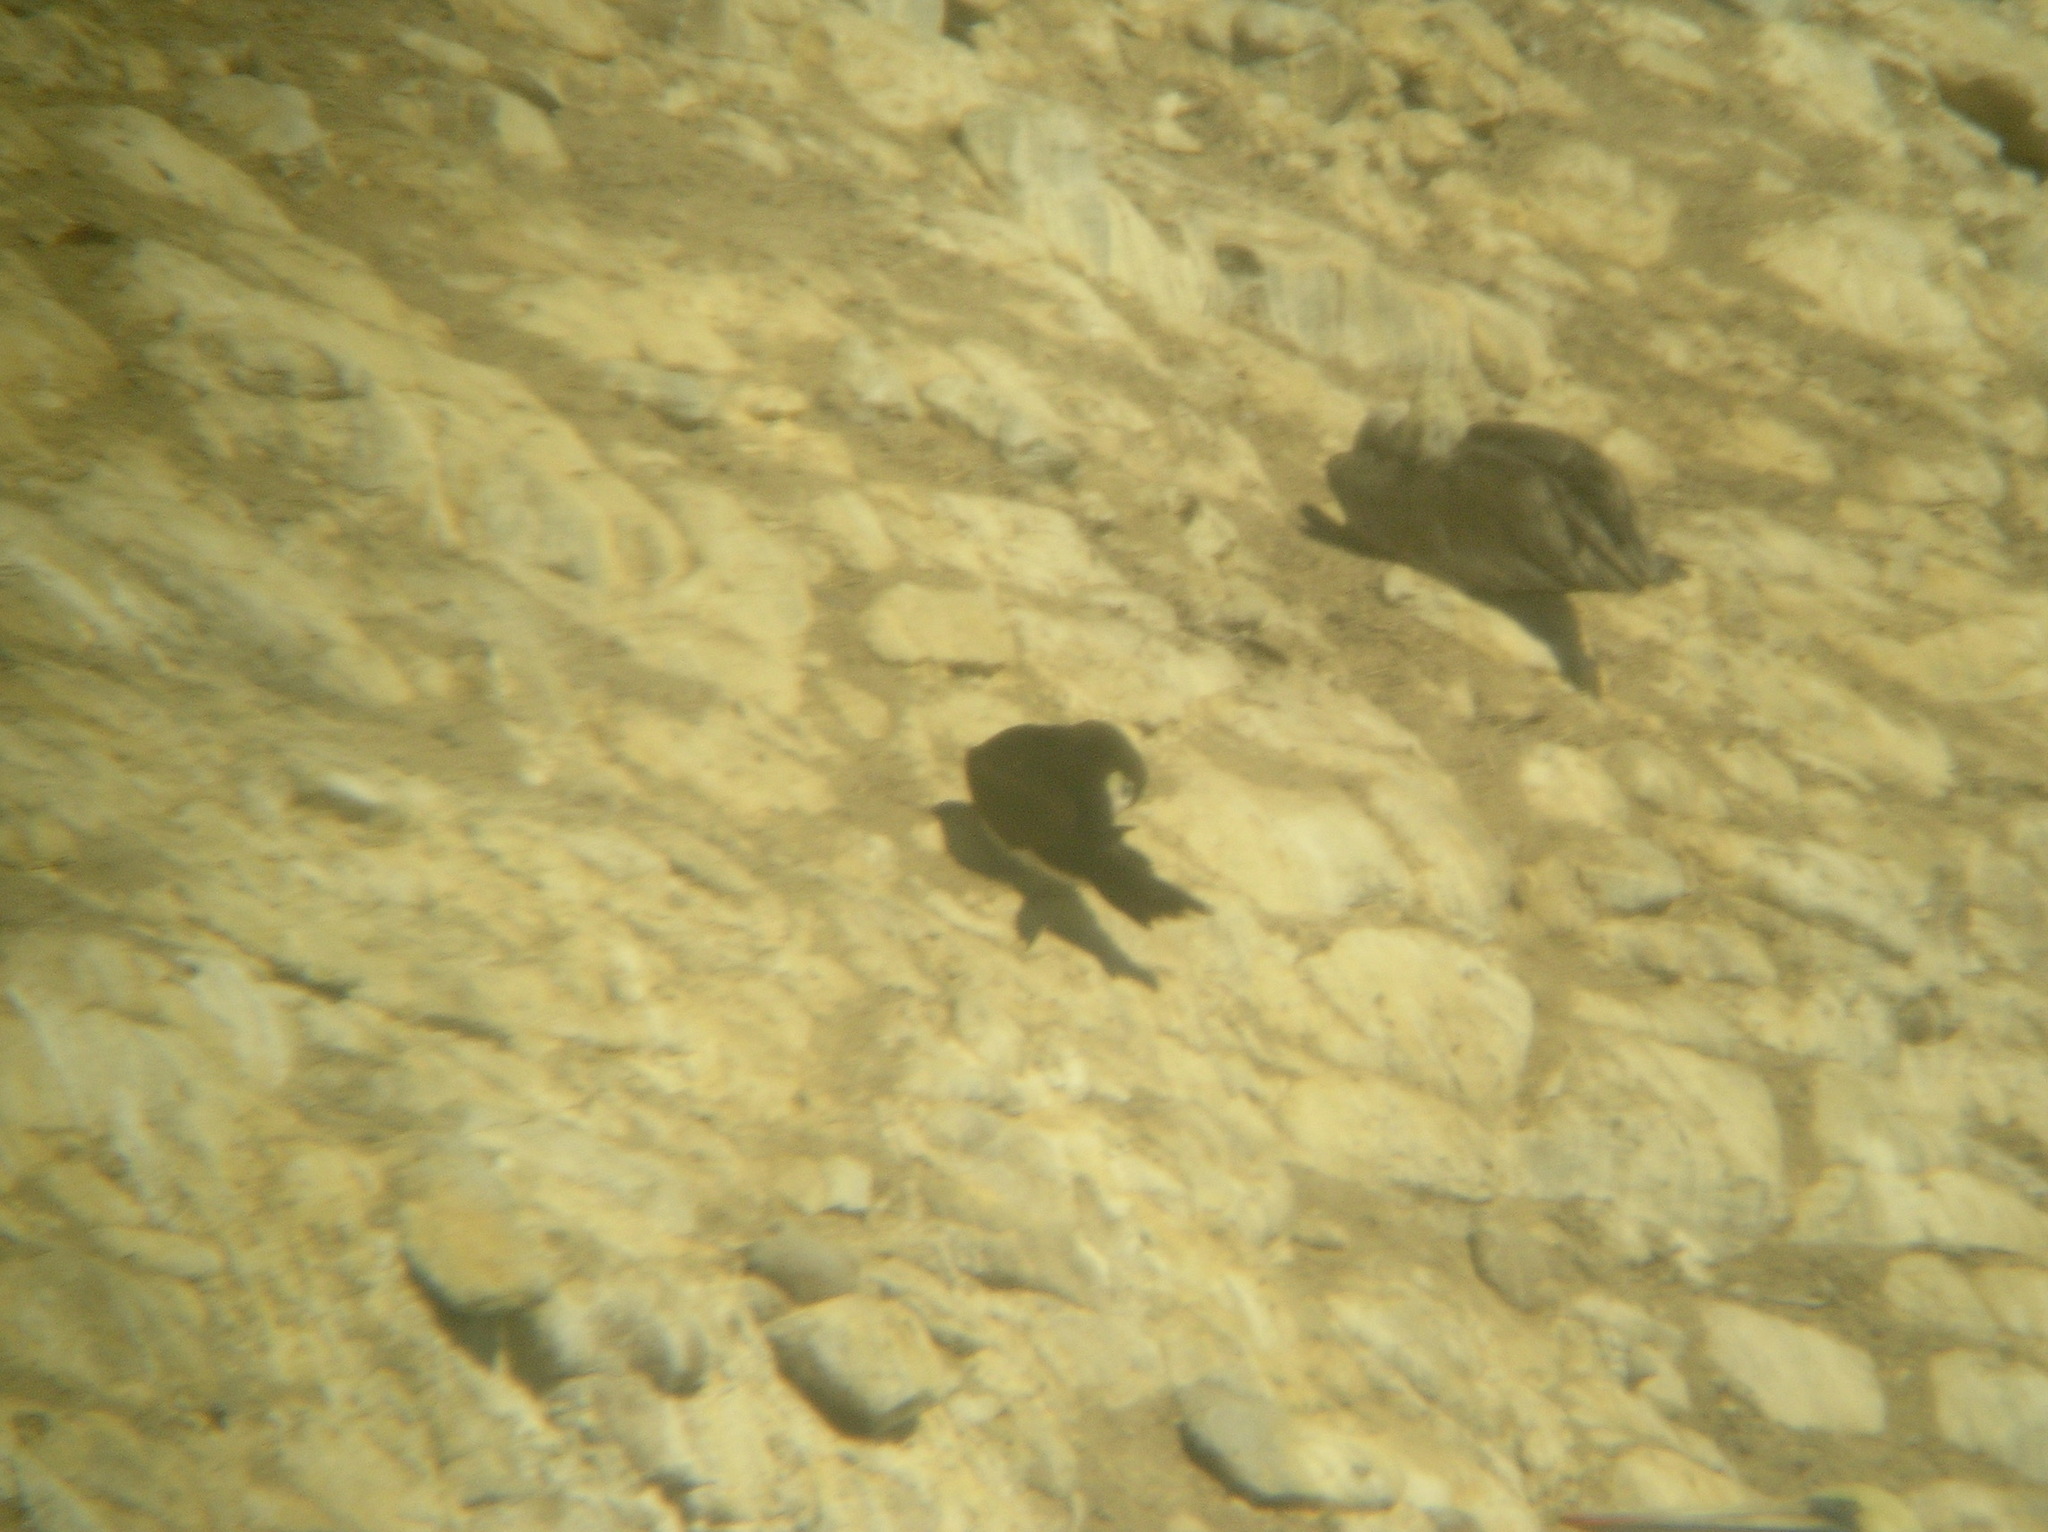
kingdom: Animalia
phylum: Chordata
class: Aves
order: Suliformes
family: Sulidae
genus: Sula
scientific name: Sula leucogaster
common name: Brown booby
